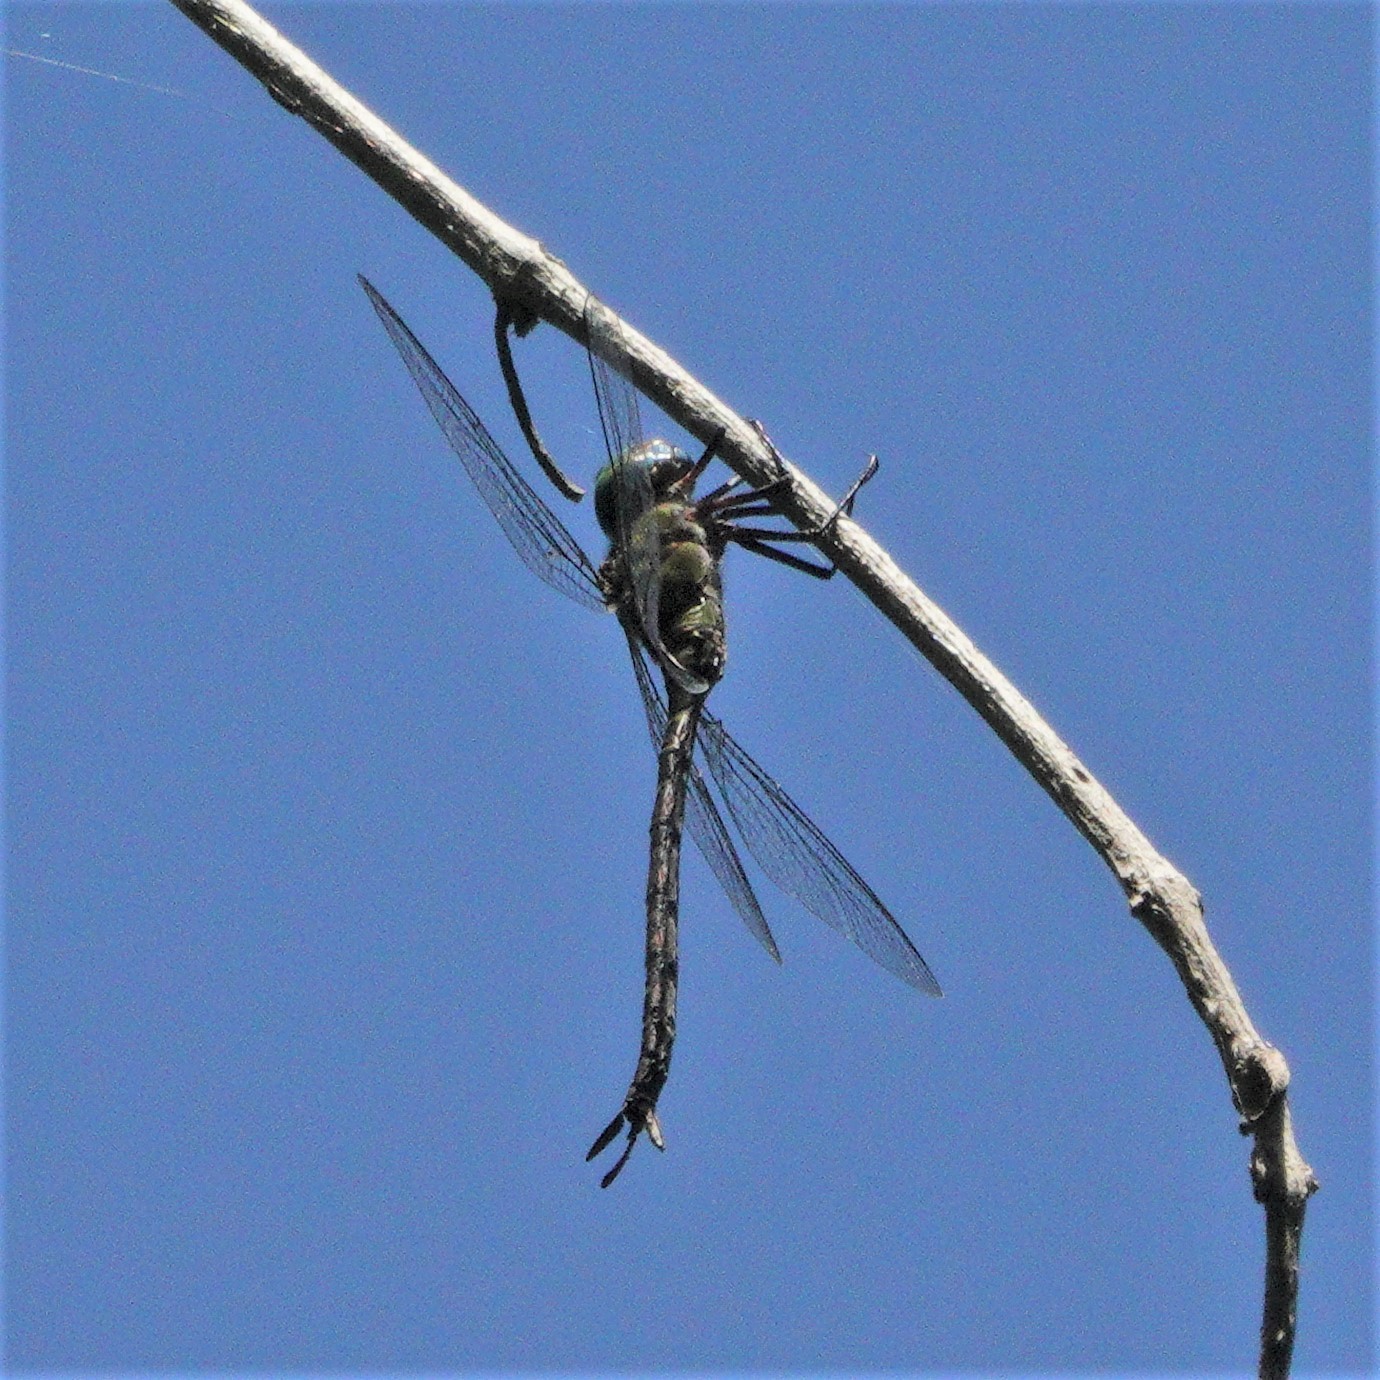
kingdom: Animalia
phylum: Arthropoda
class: Insecta
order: Odonata
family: Aeshnidae
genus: Coryphaeschna
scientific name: Coryphaeschna adnexa
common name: Blue-faced darner
